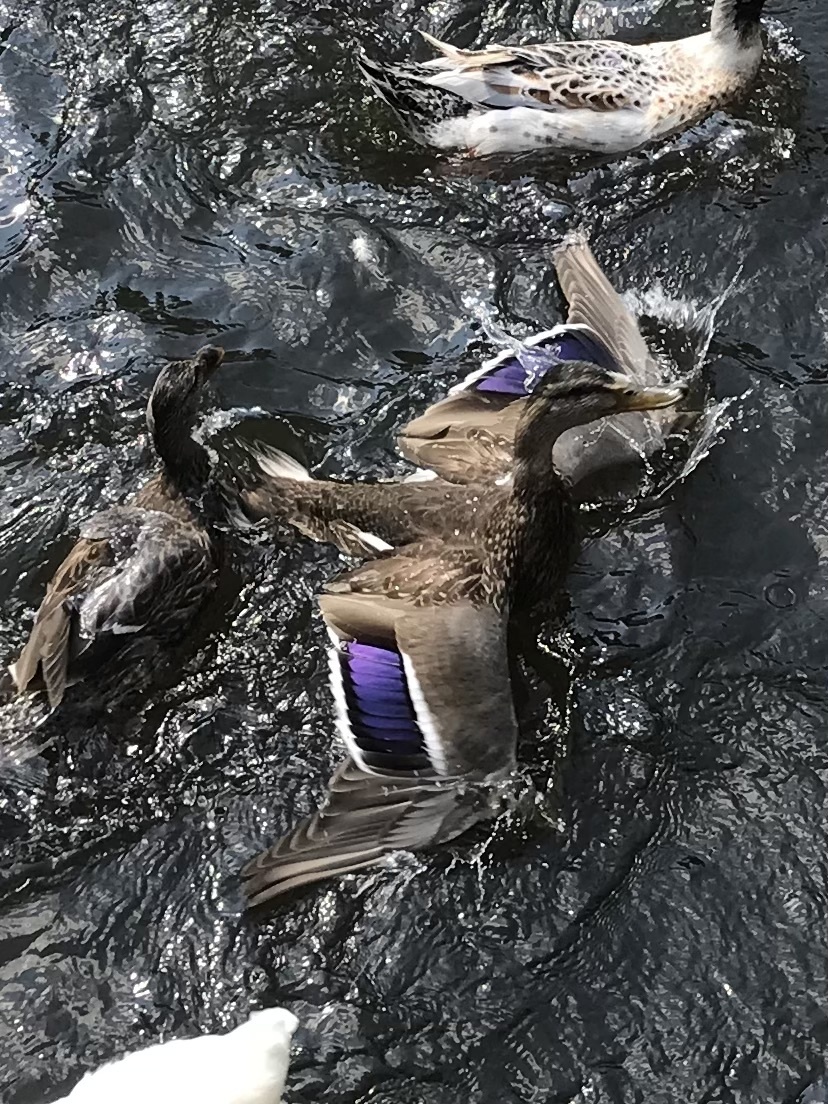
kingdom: Animalia
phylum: Chordata
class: Aves
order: Anseriformes
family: Anatidae
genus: Anas
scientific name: Anas platyrhynchos
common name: Mallard
